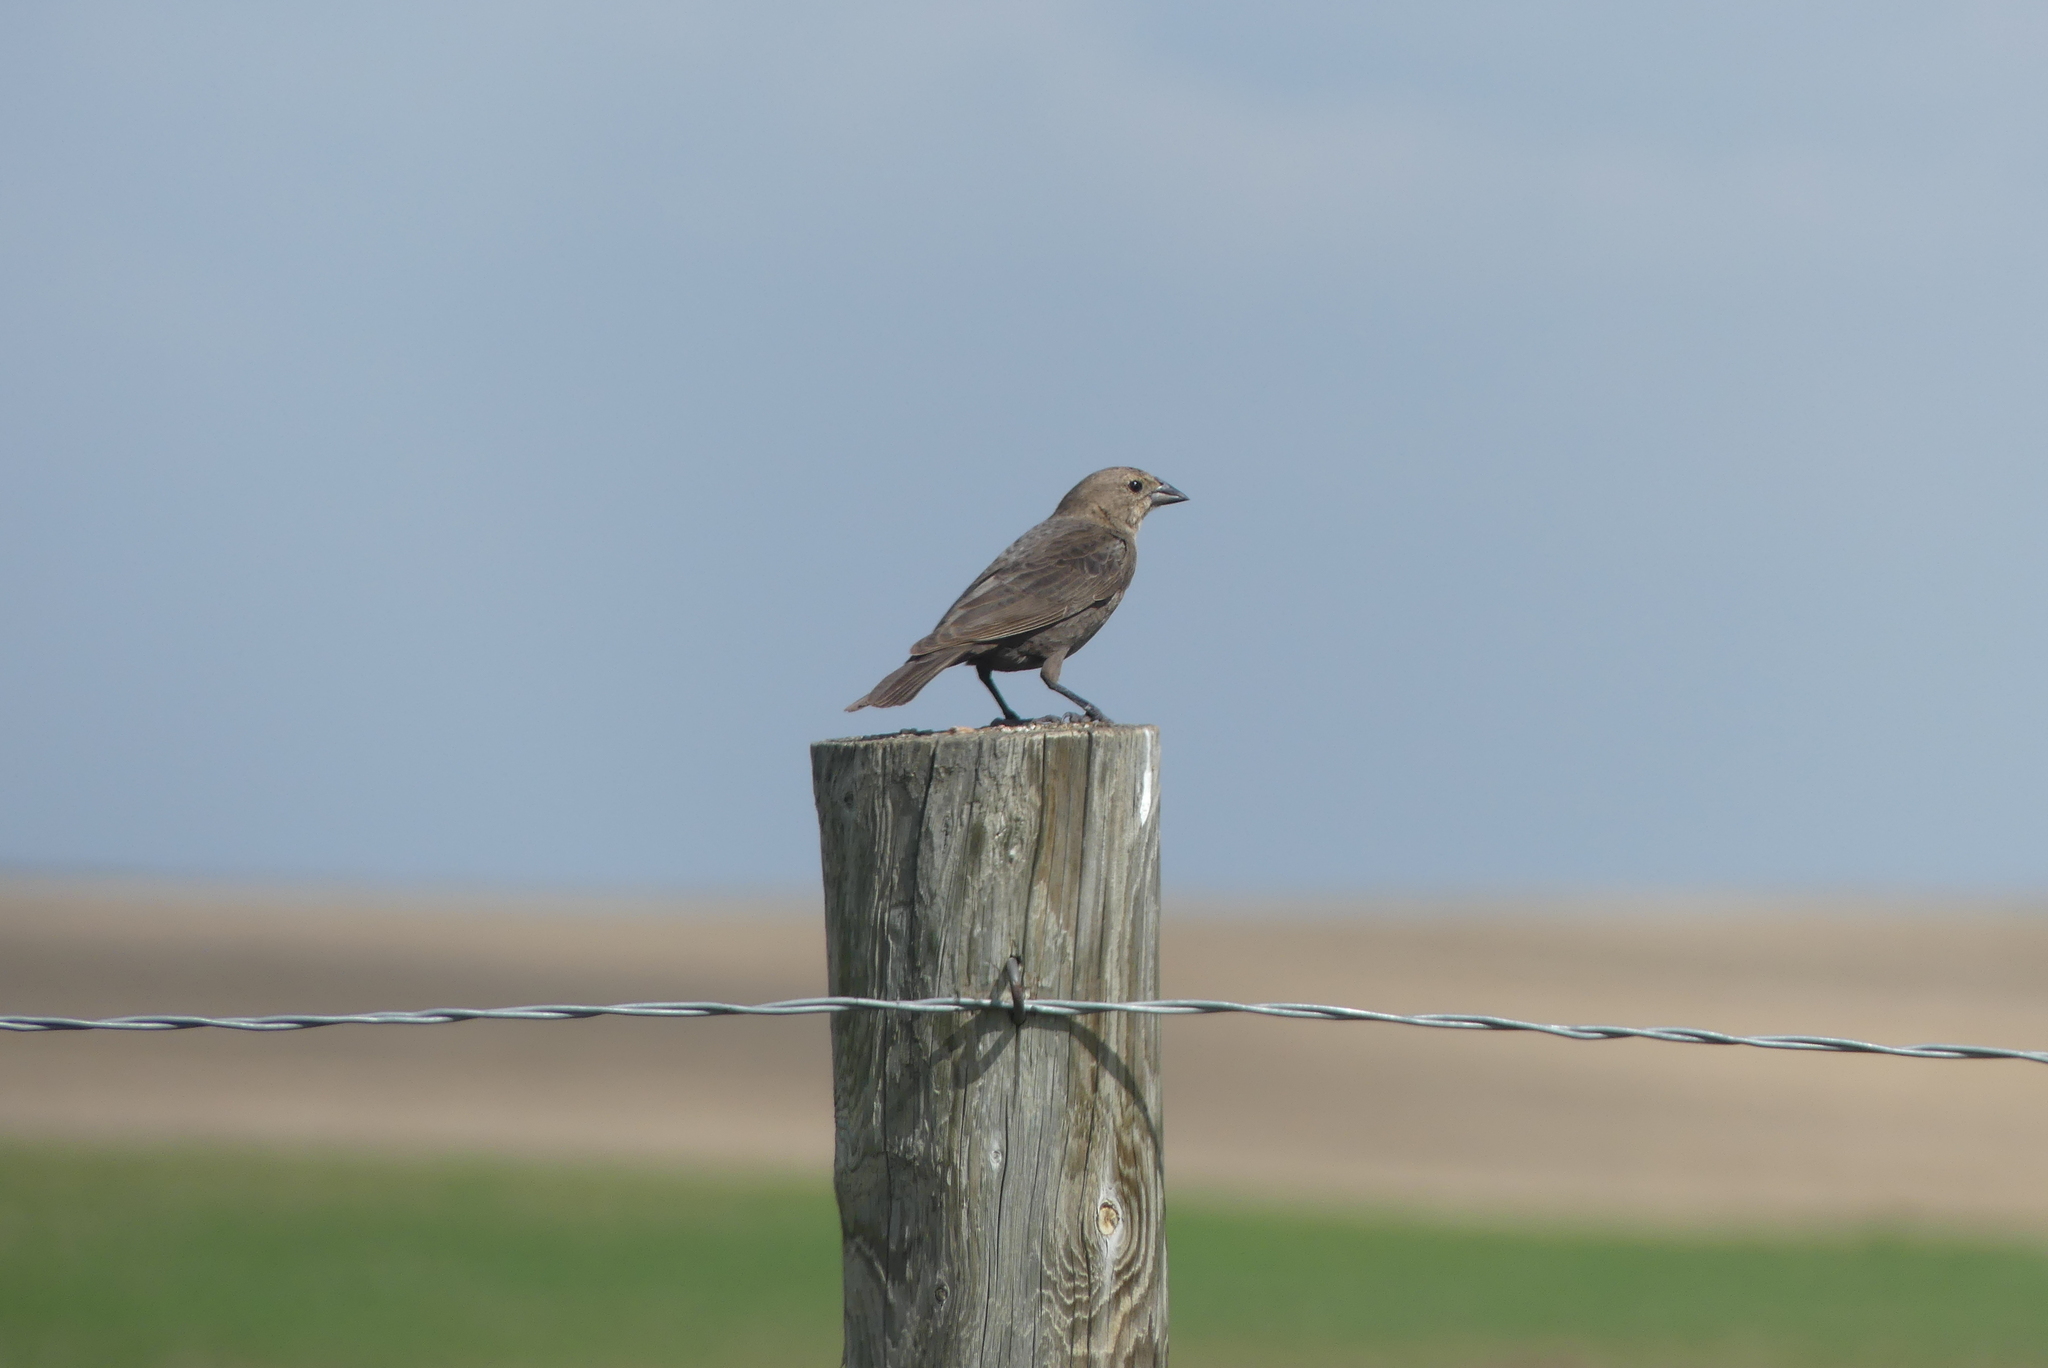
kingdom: Animalia
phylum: Chordata
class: Aves
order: Passeriformes
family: Icteridae
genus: Molothrus
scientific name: Molothrus ater
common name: Brown-headed cowbird
